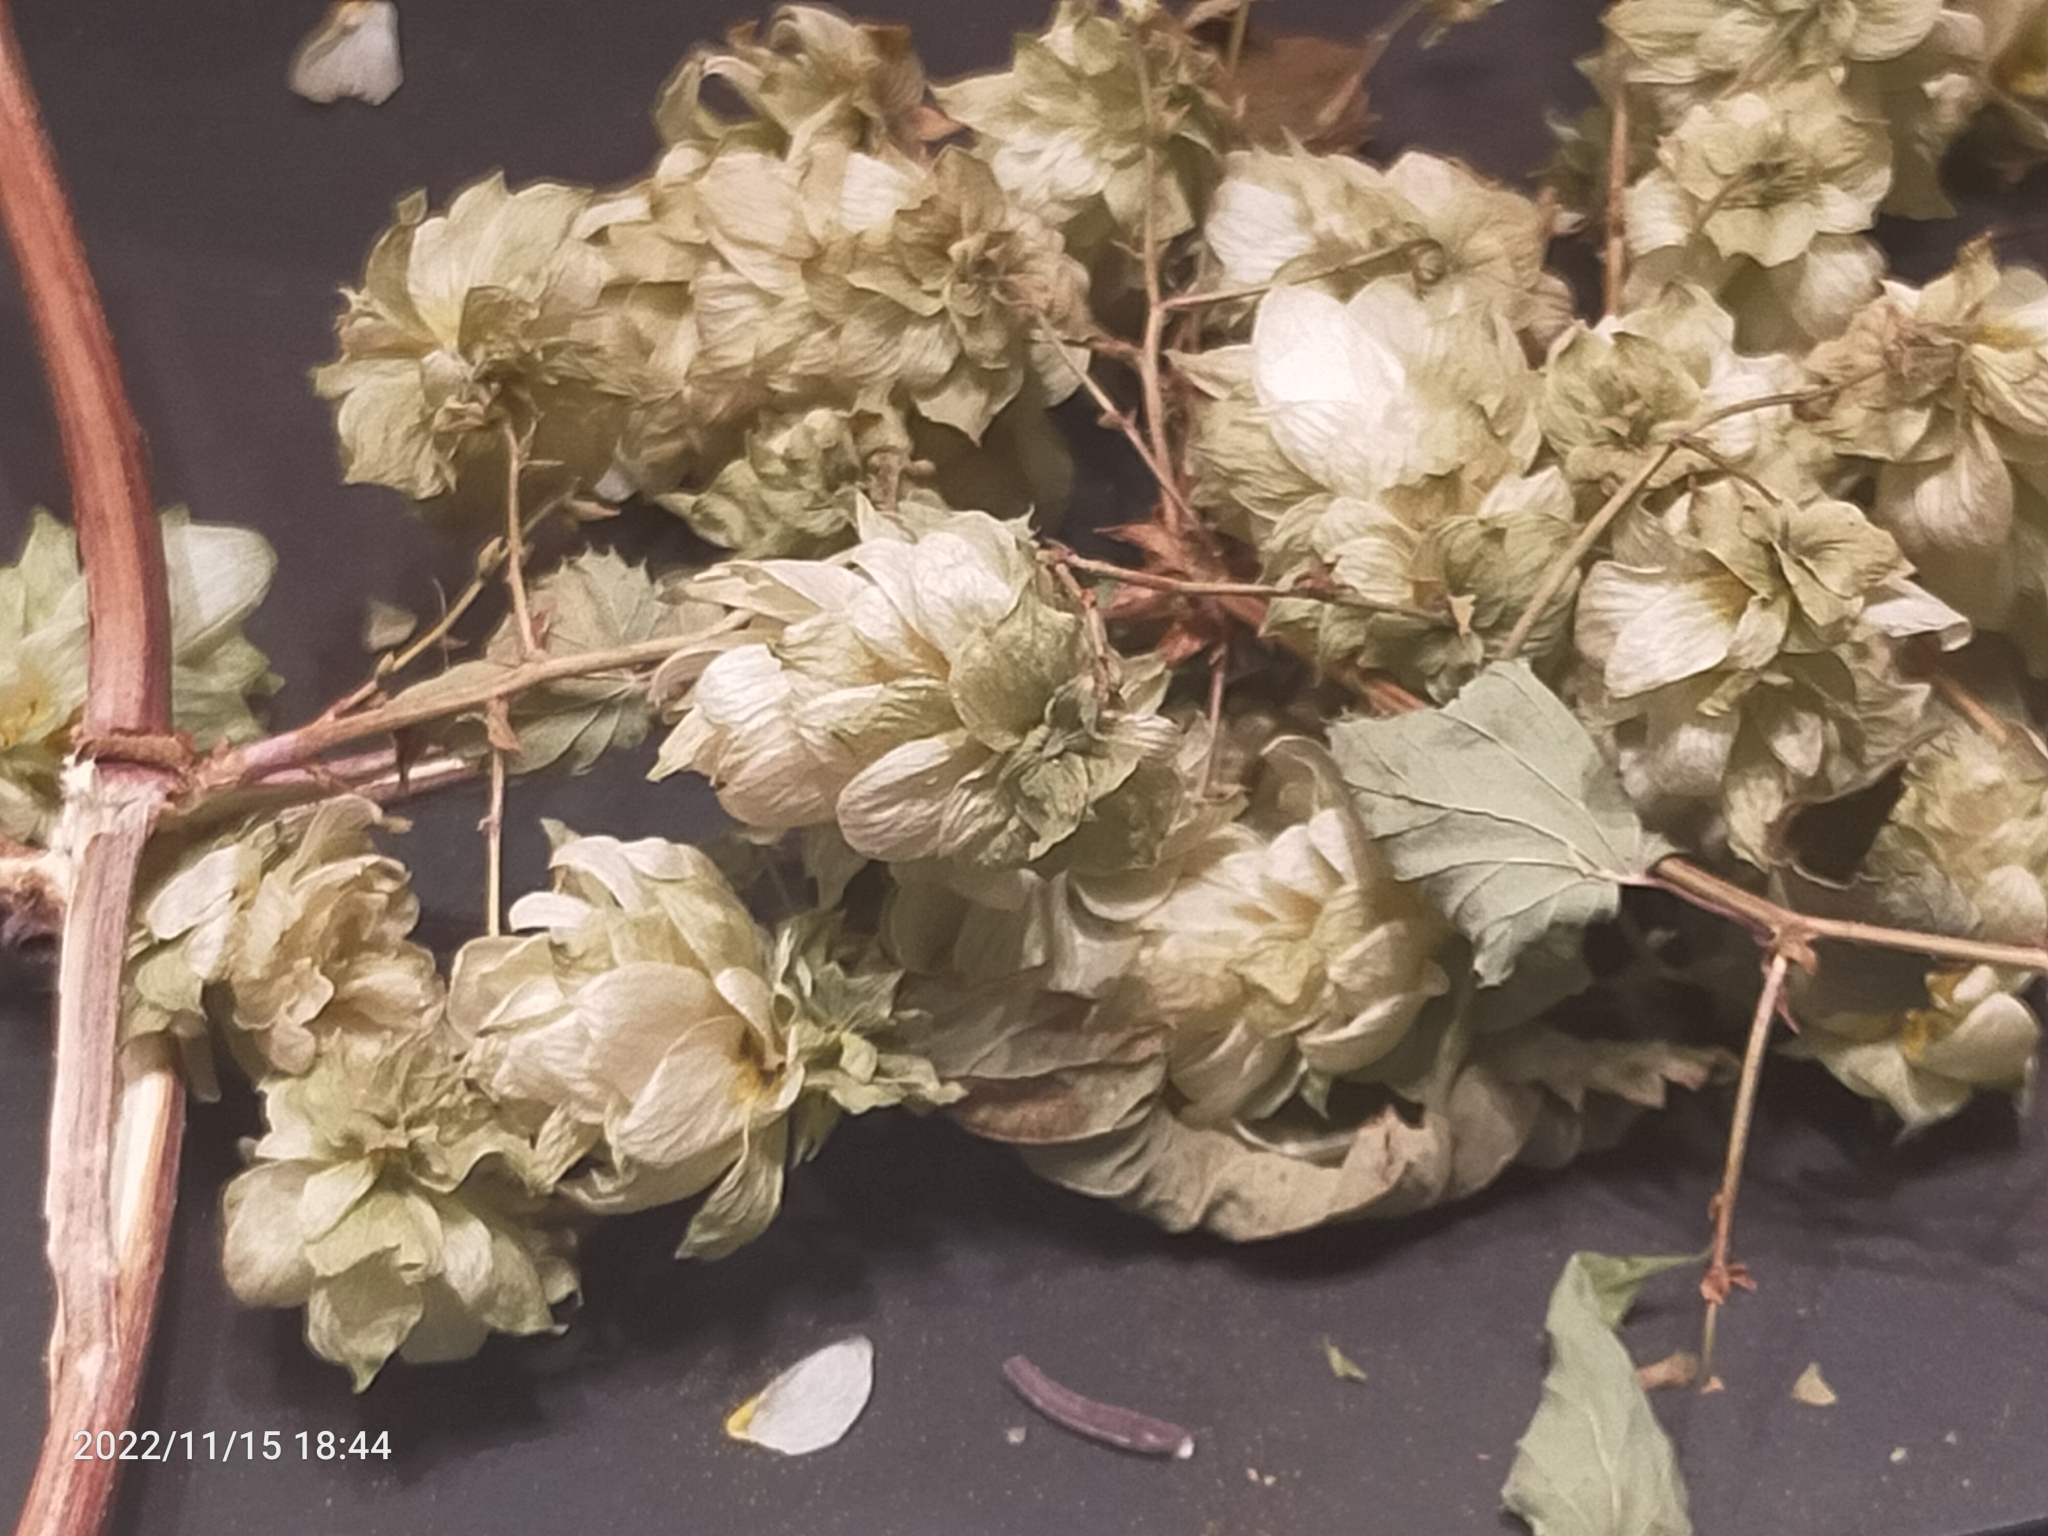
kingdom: Plantae
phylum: Tracheophyta
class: Magnoliopsida
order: Rosales
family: Cannabaceae
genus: Humulus
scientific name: Humulus lupulus
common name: Hop
